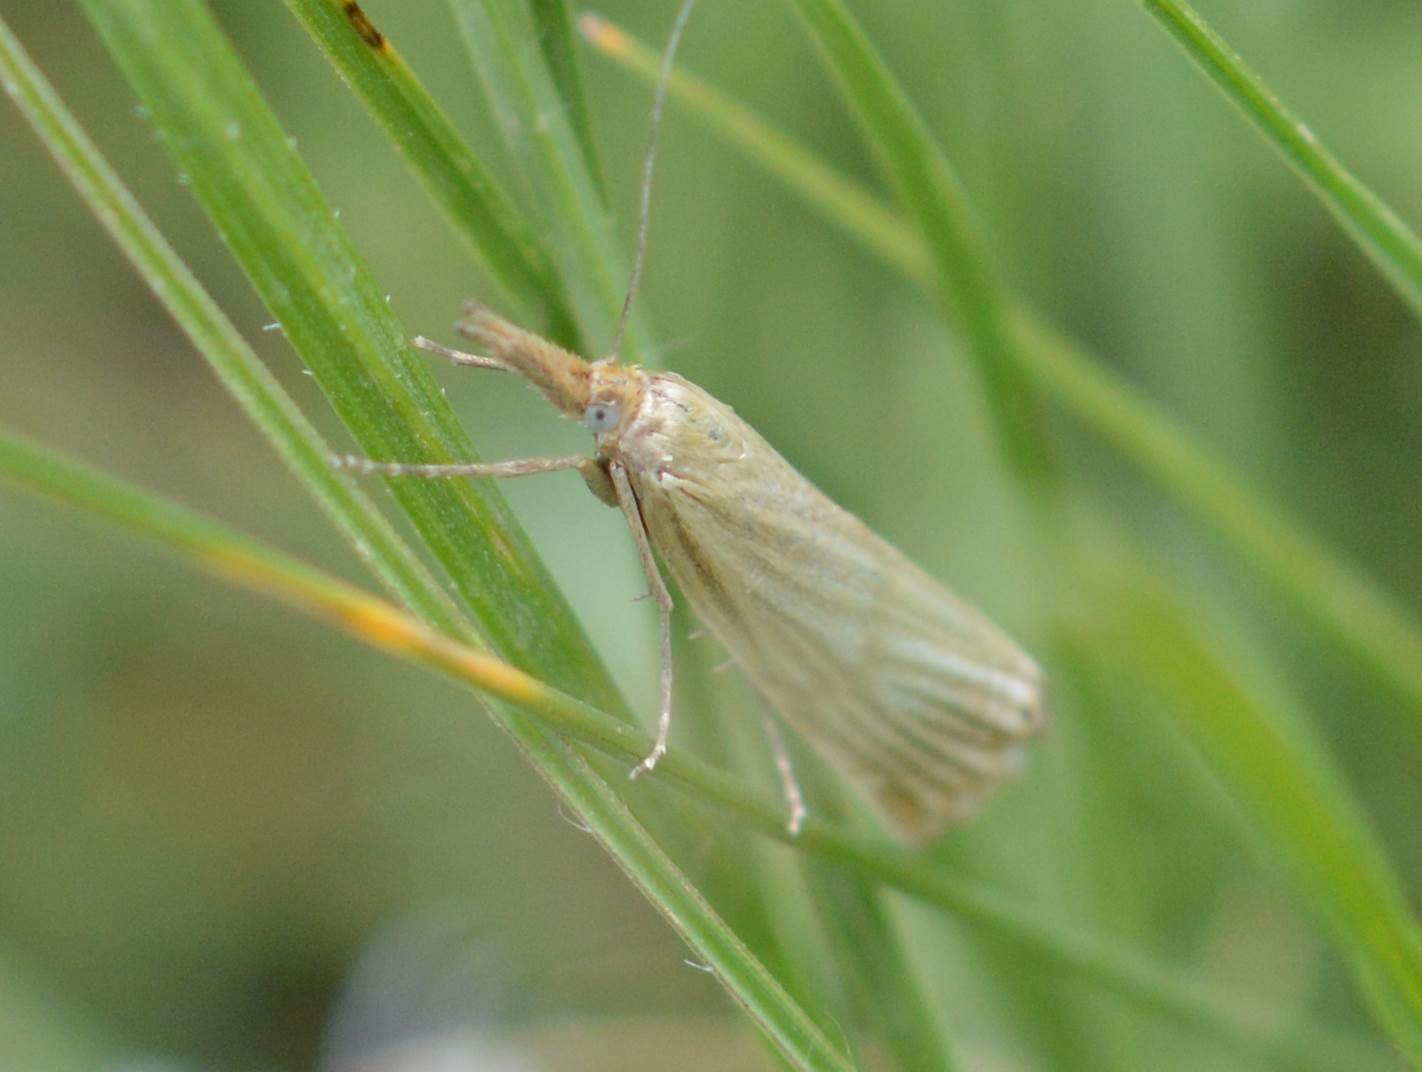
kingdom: Animalia
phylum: Arthropoda
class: Insecta
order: Lepidoptera
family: Crambidae
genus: Chrysocrambus
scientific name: Chrysocrambus linetella
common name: Orange-bar grass-veneer
